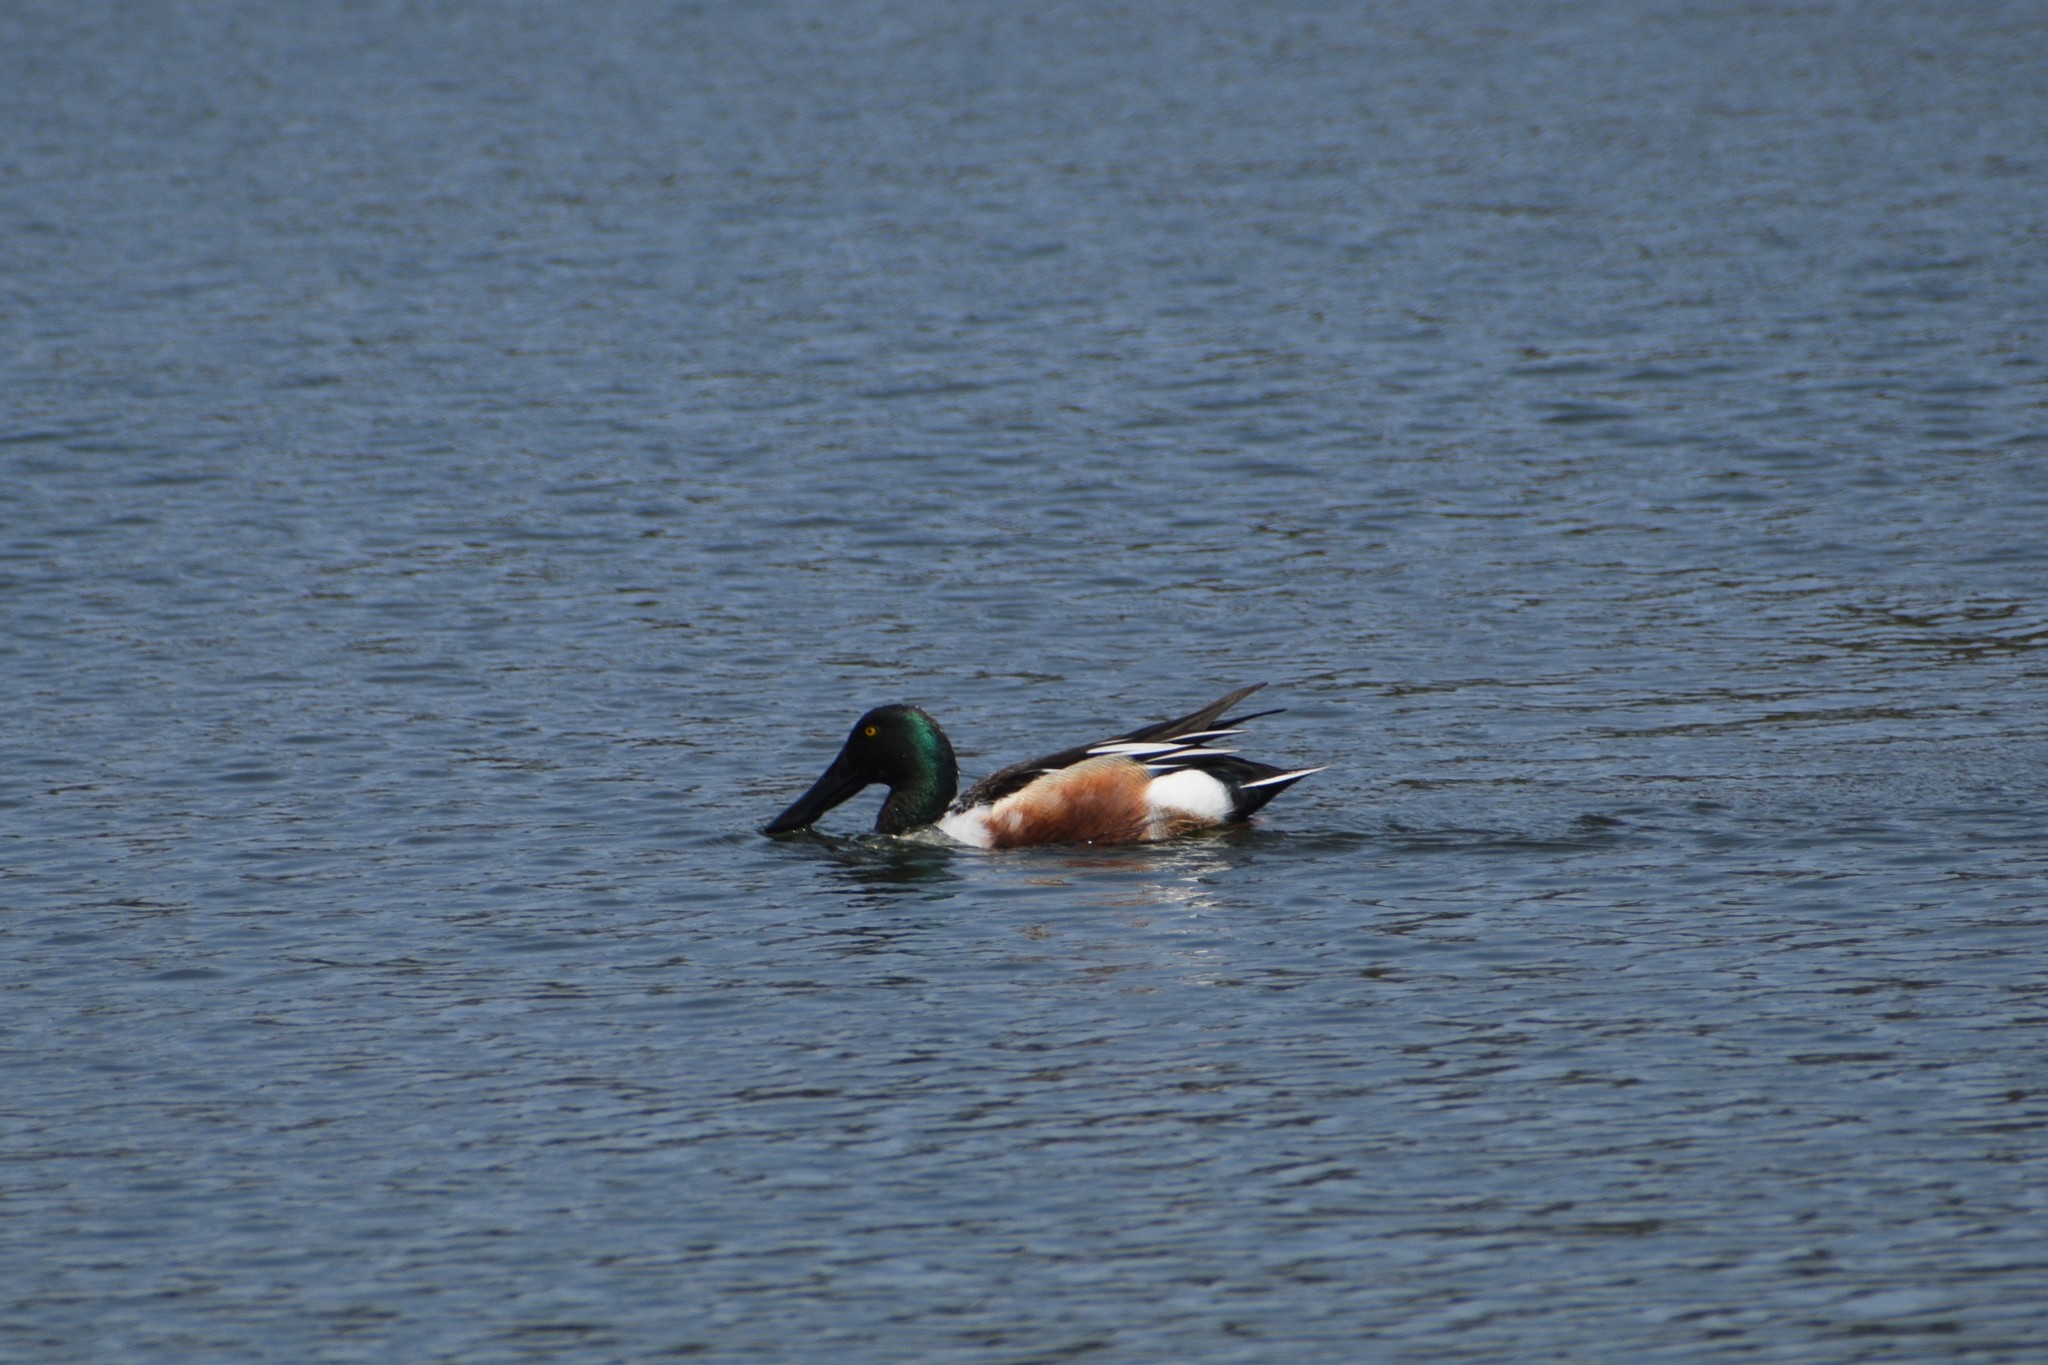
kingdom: Animalia
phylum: Chordata
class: Aves
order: Anseriformes
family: Anatidae
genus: Spatula
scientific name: Spatula clypeata
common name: Northern shoveler
